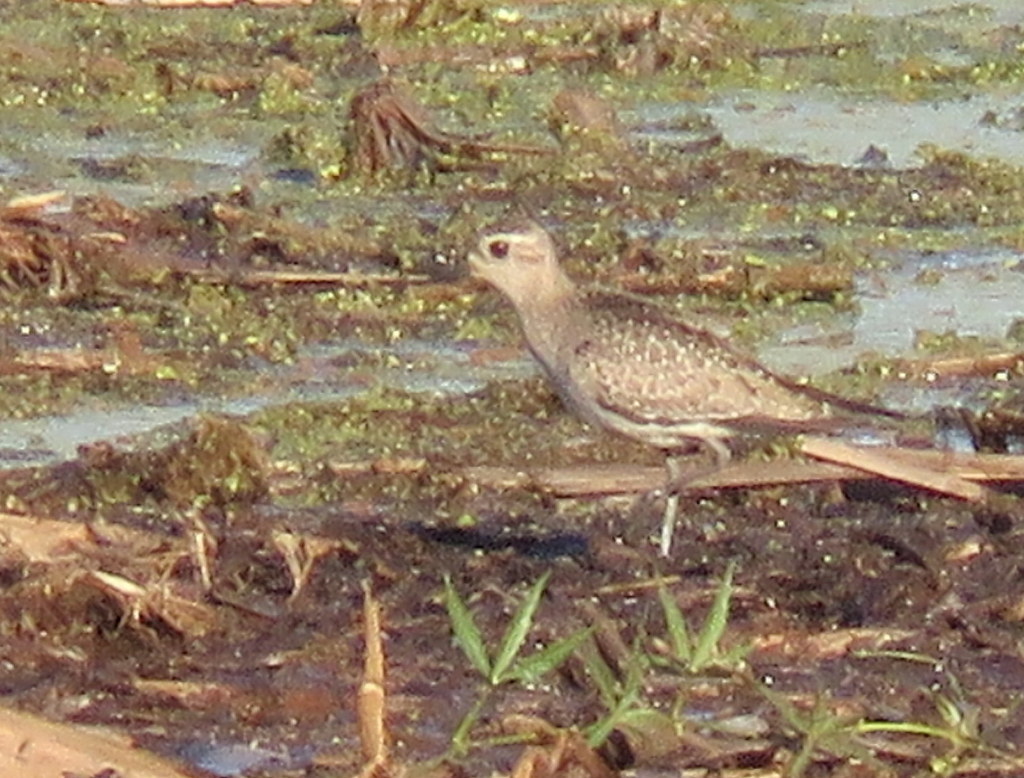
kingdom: Animalia
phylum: Chordata
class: Aves
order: Charadriiformes
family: Charadriidae
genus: Pluvialis
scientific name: Pluvialis dominica
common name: American golden plover
